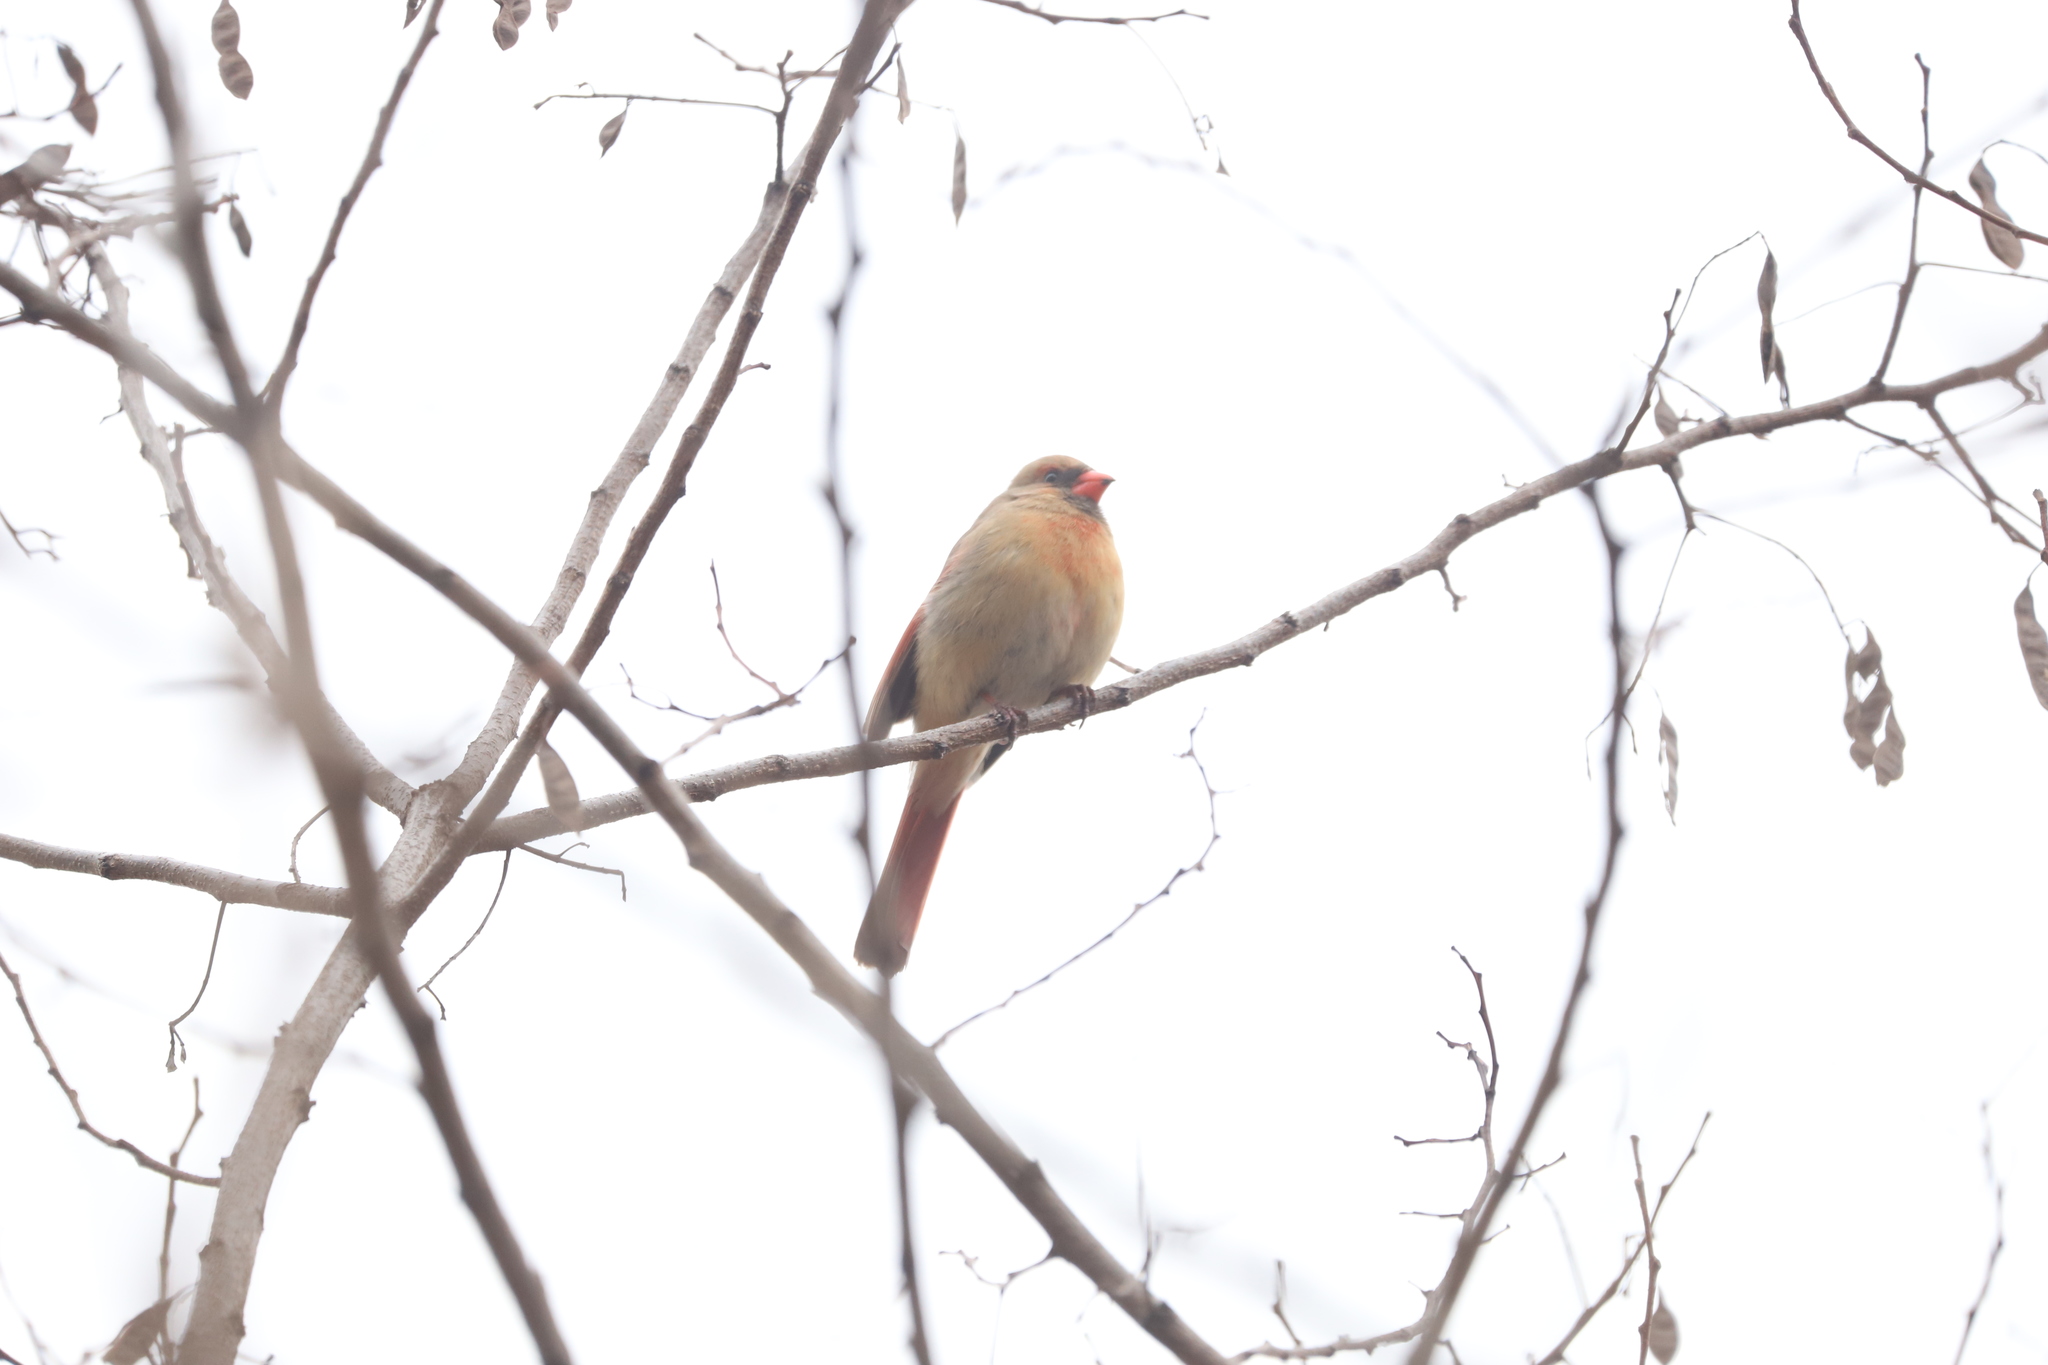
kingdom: Animalia
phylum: Chordata
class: Aves
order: Passeriformes
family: Cardinalidae
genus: Cardinalis
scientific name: Cardinalis cardinalis
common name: Northern cardinal
